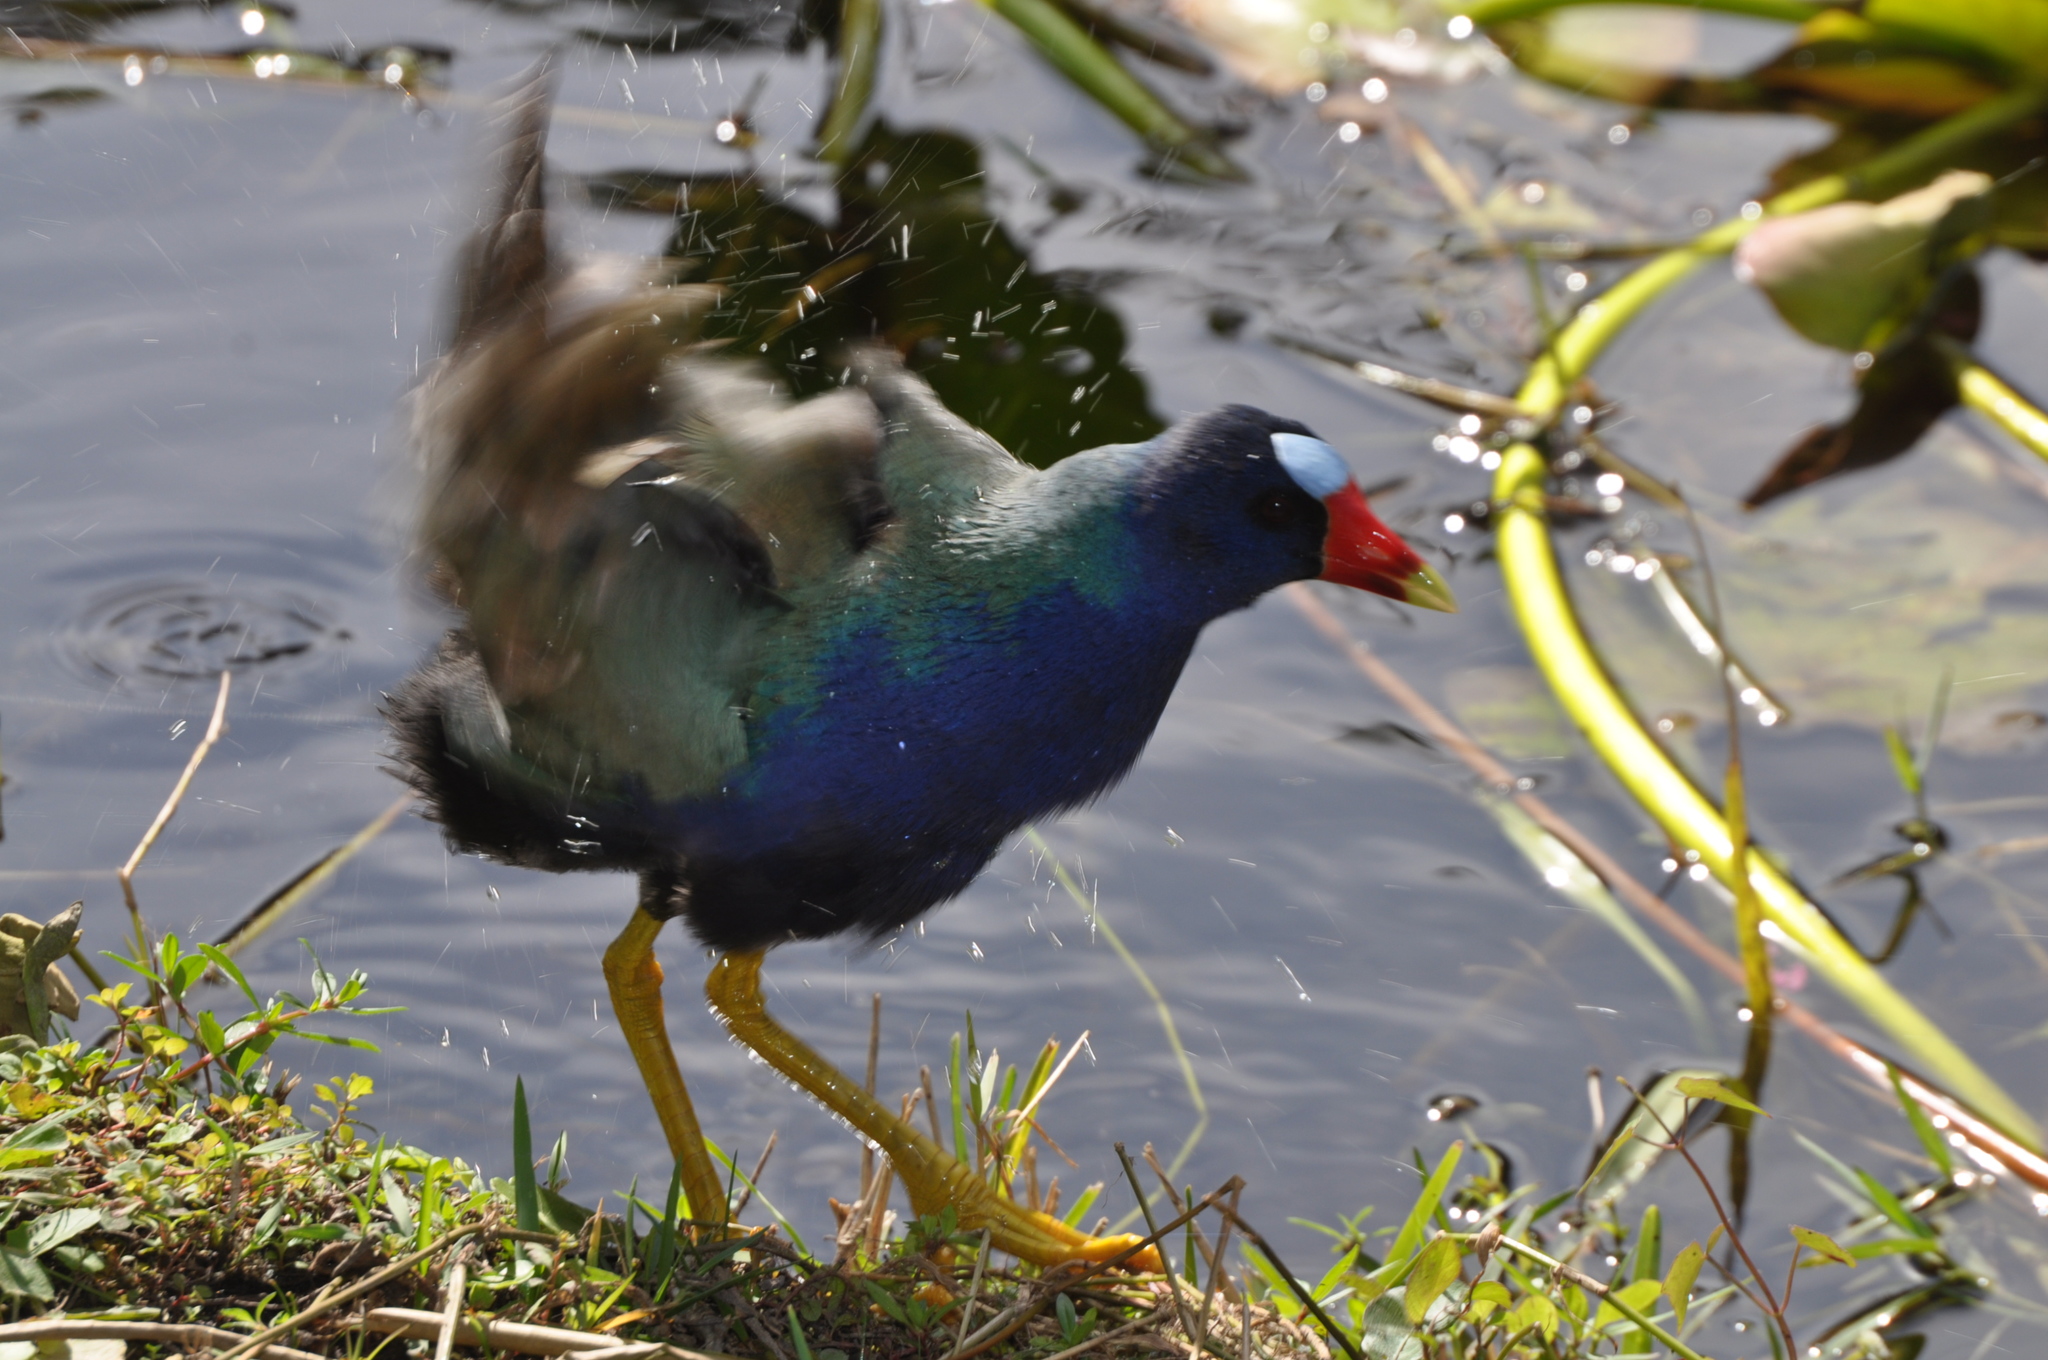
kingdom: Animalia
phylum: Chordata
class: Aves
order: Gruiformes
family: Rallidae
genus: Porphyrio
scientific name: Porphyrio martinica
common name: Purple gallinule
